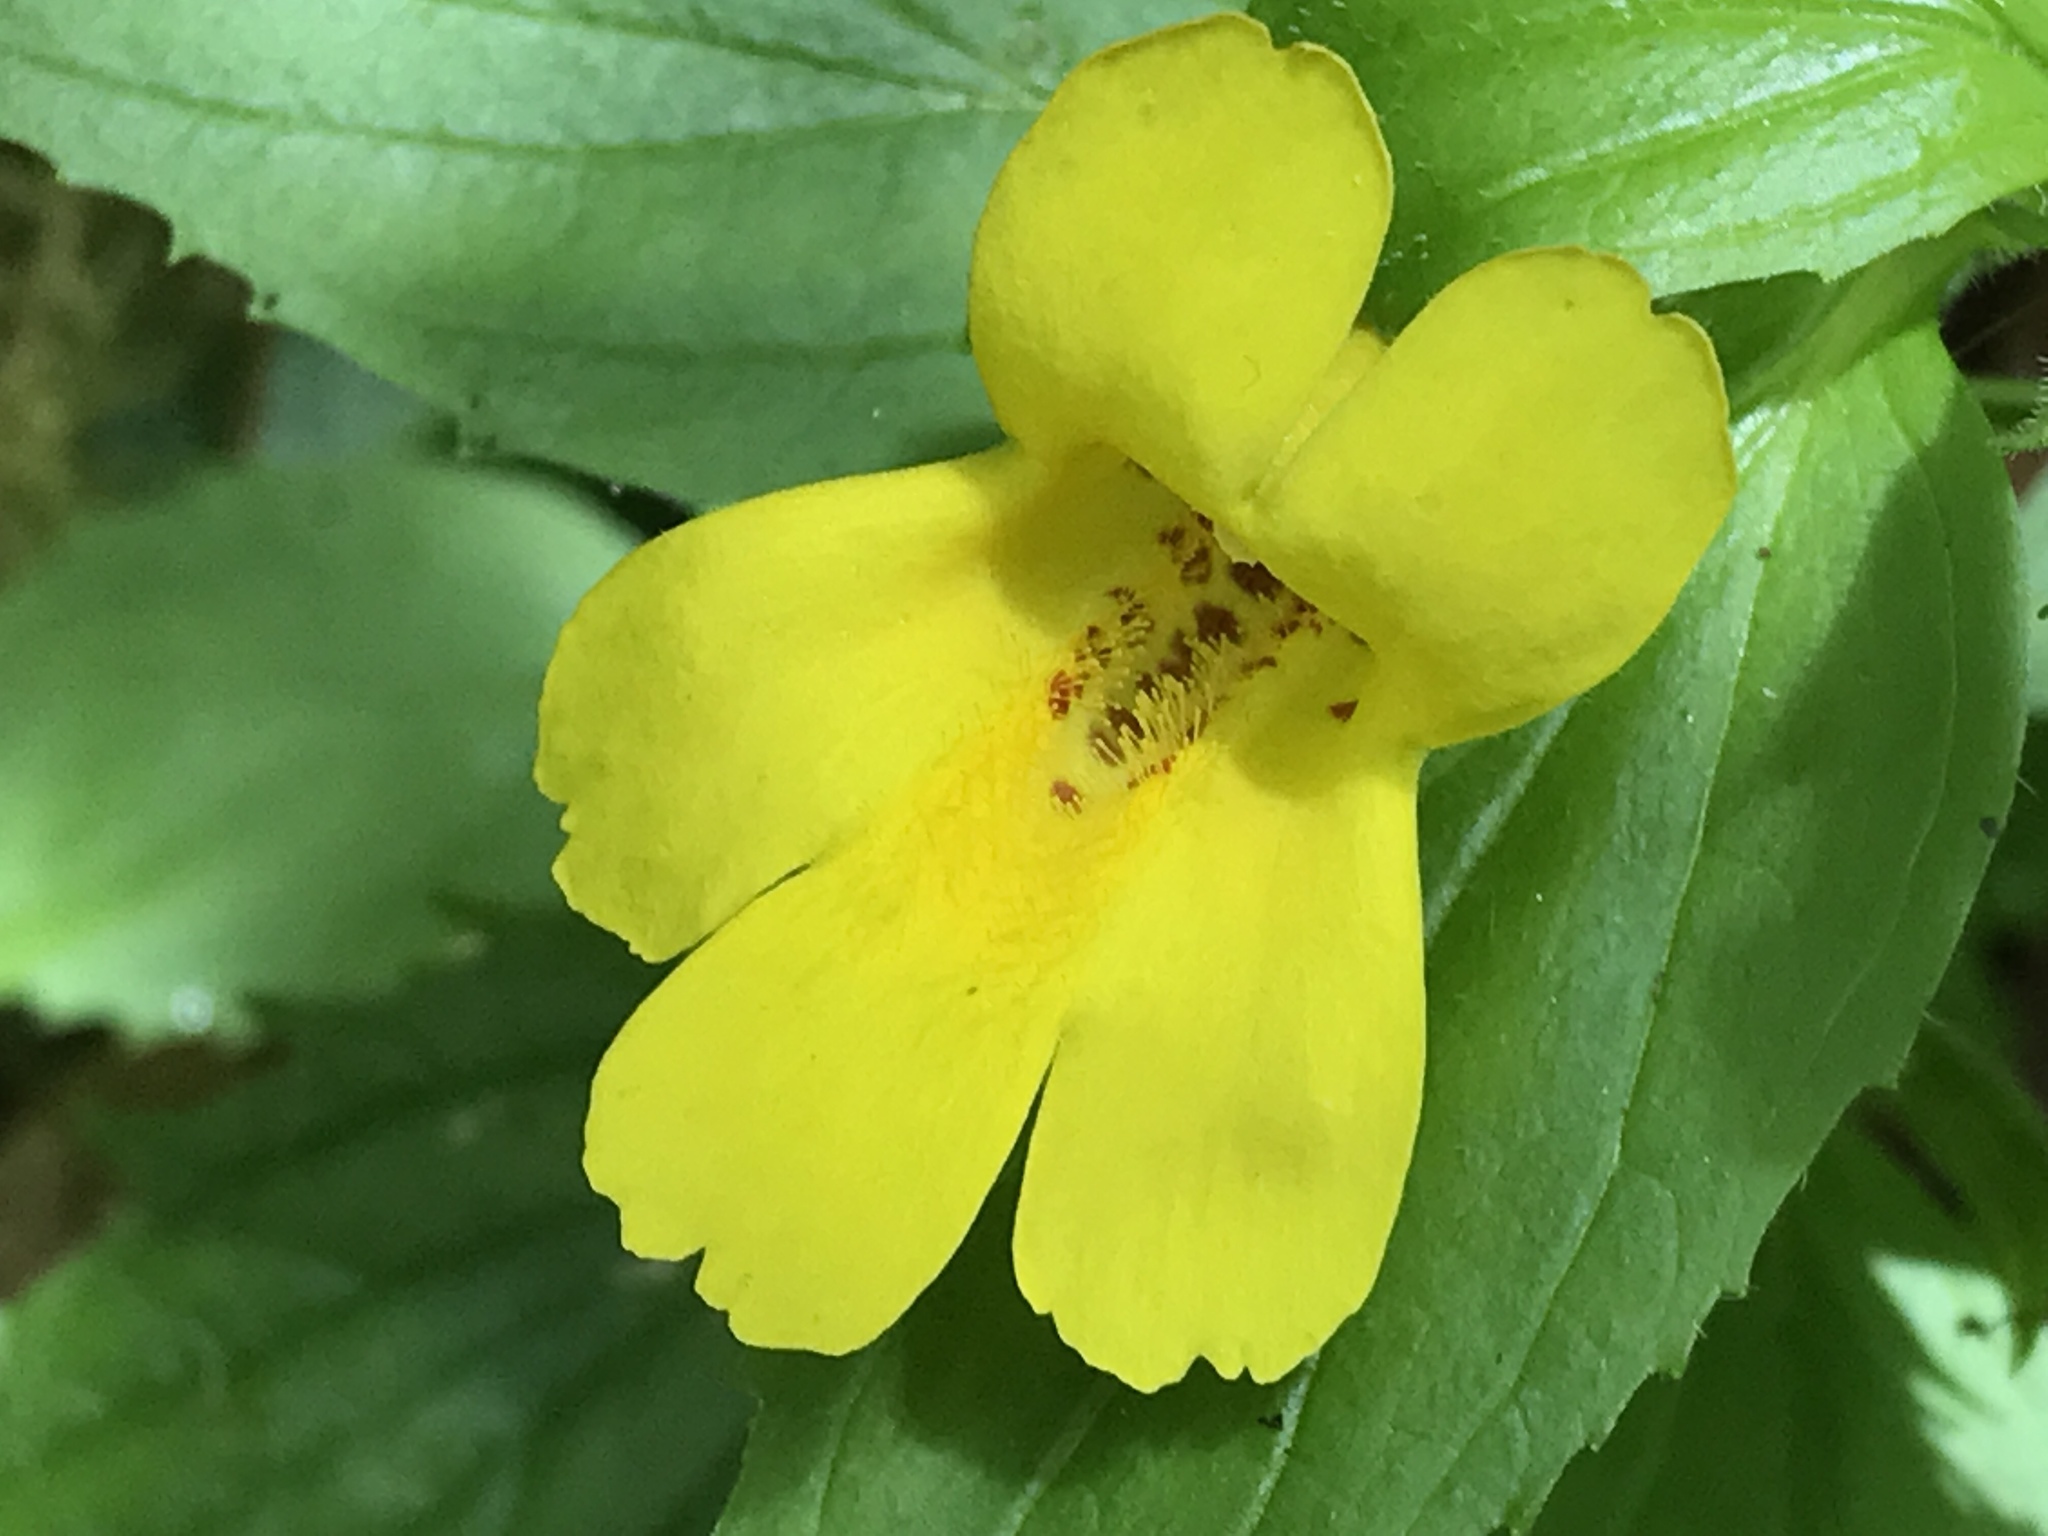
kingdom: Plantae
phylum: Tracheophyta
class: Magnoliopsida
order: Lamiales
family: Phrymaceae
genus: Erythranthe
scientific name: Erythranthe dentata
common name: Coastal monkeyflower
